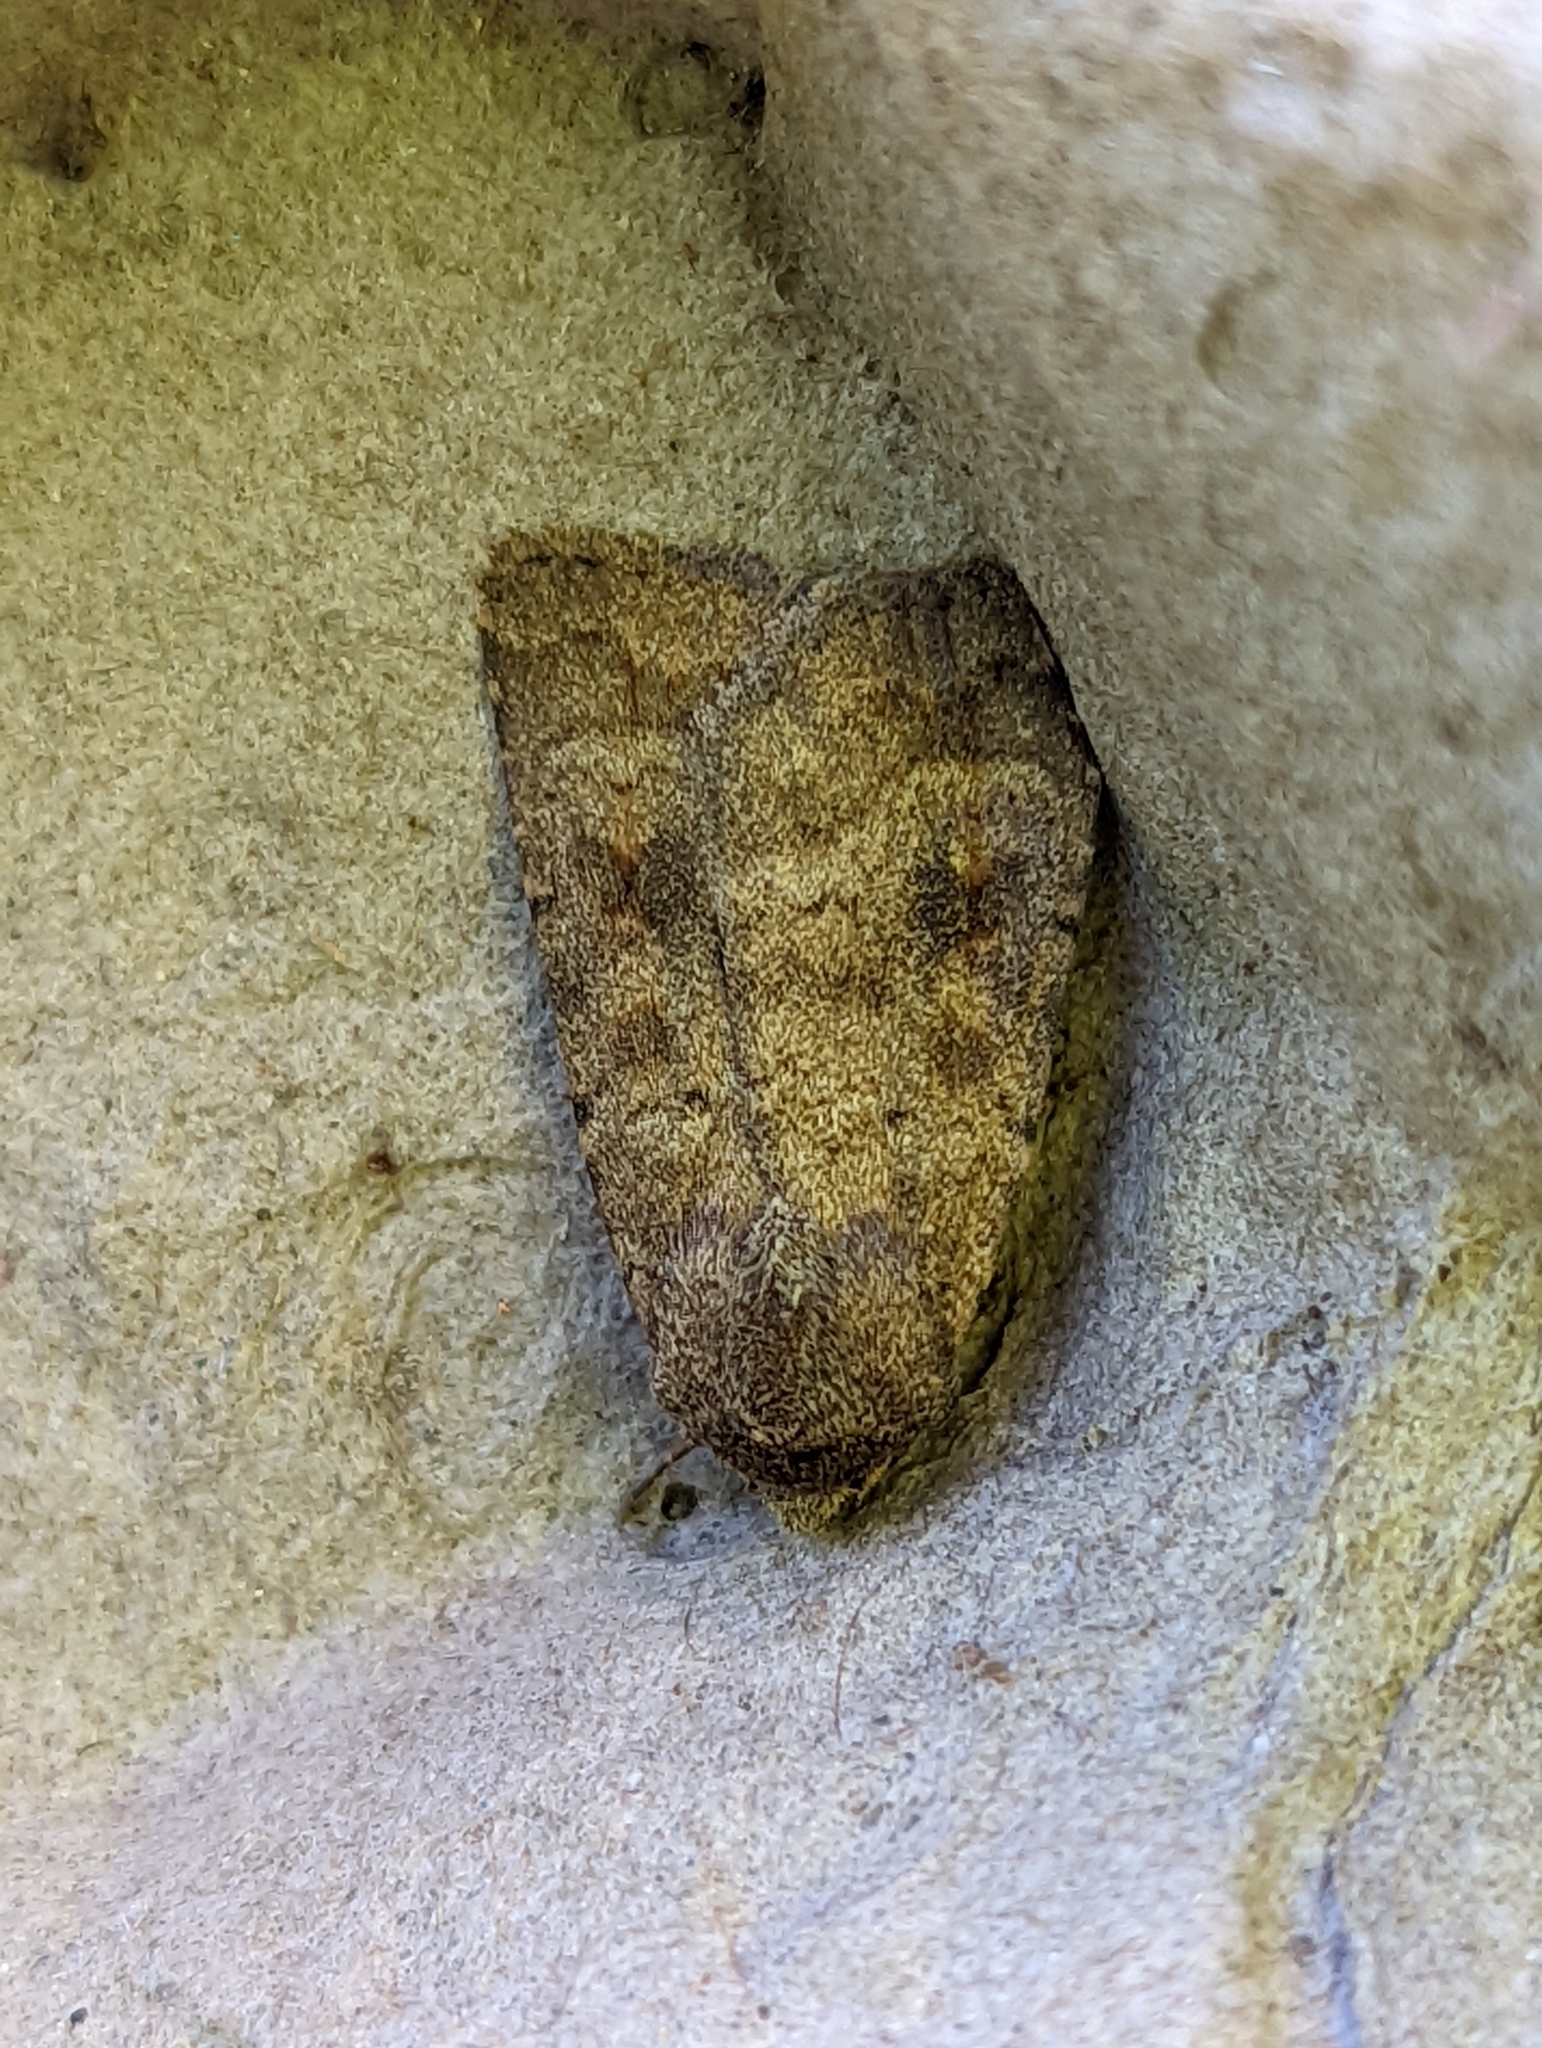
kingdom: Animalia
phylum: Arthropoda
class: Insecta
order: Lepidoptera
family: Noctuidae
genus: Caradrina
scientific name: Caradrina morpheus
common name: Mottled rustic
